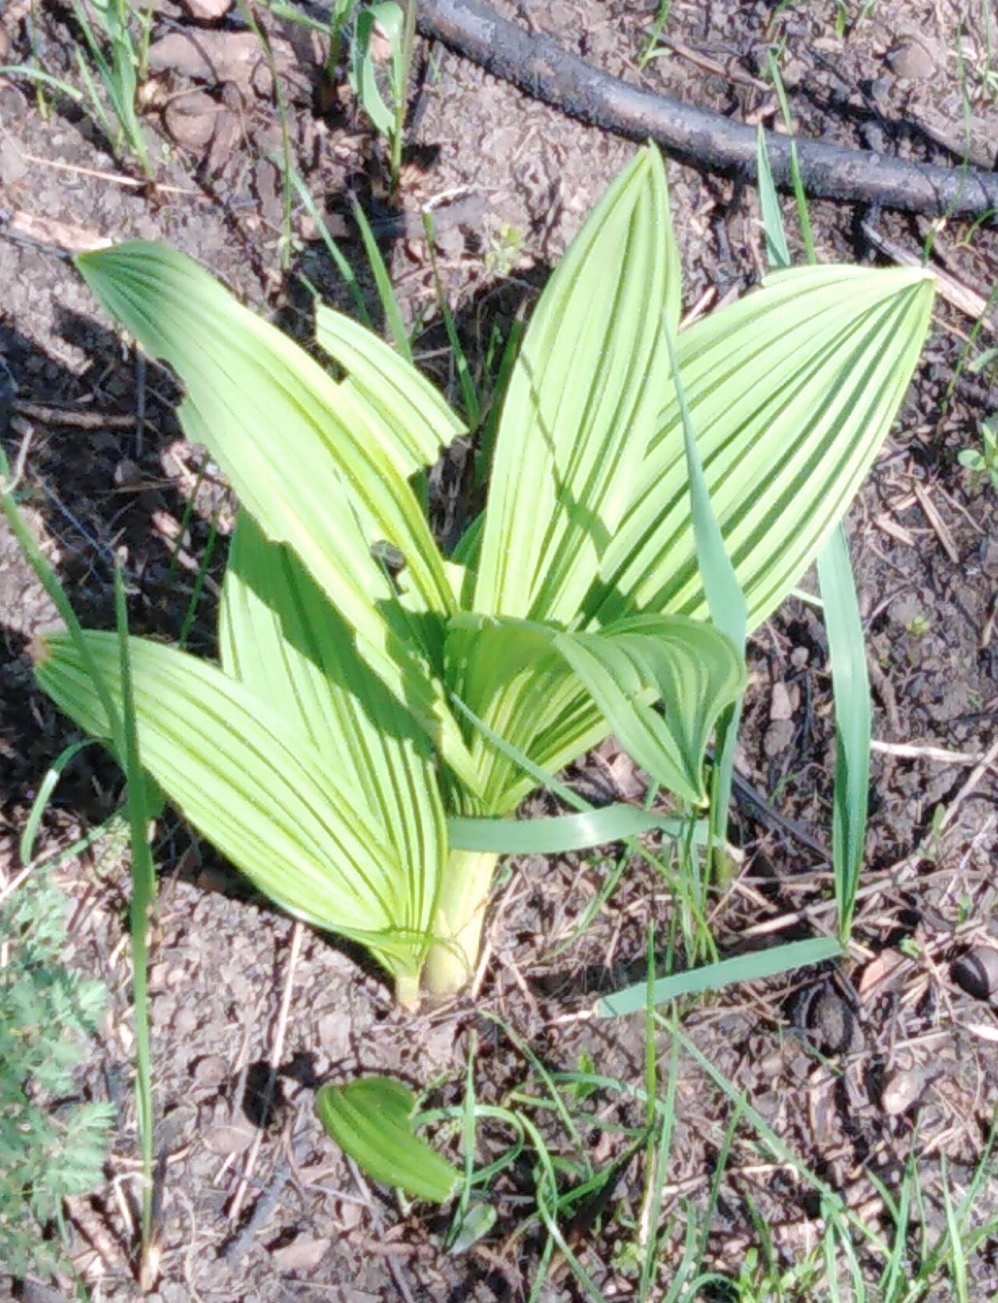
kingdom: Plantae
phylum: Tracheophyta
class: Liliopsida
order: Liliales
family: Melanthiaceae
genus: Veratrum
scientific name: Veratrum lobelianum
